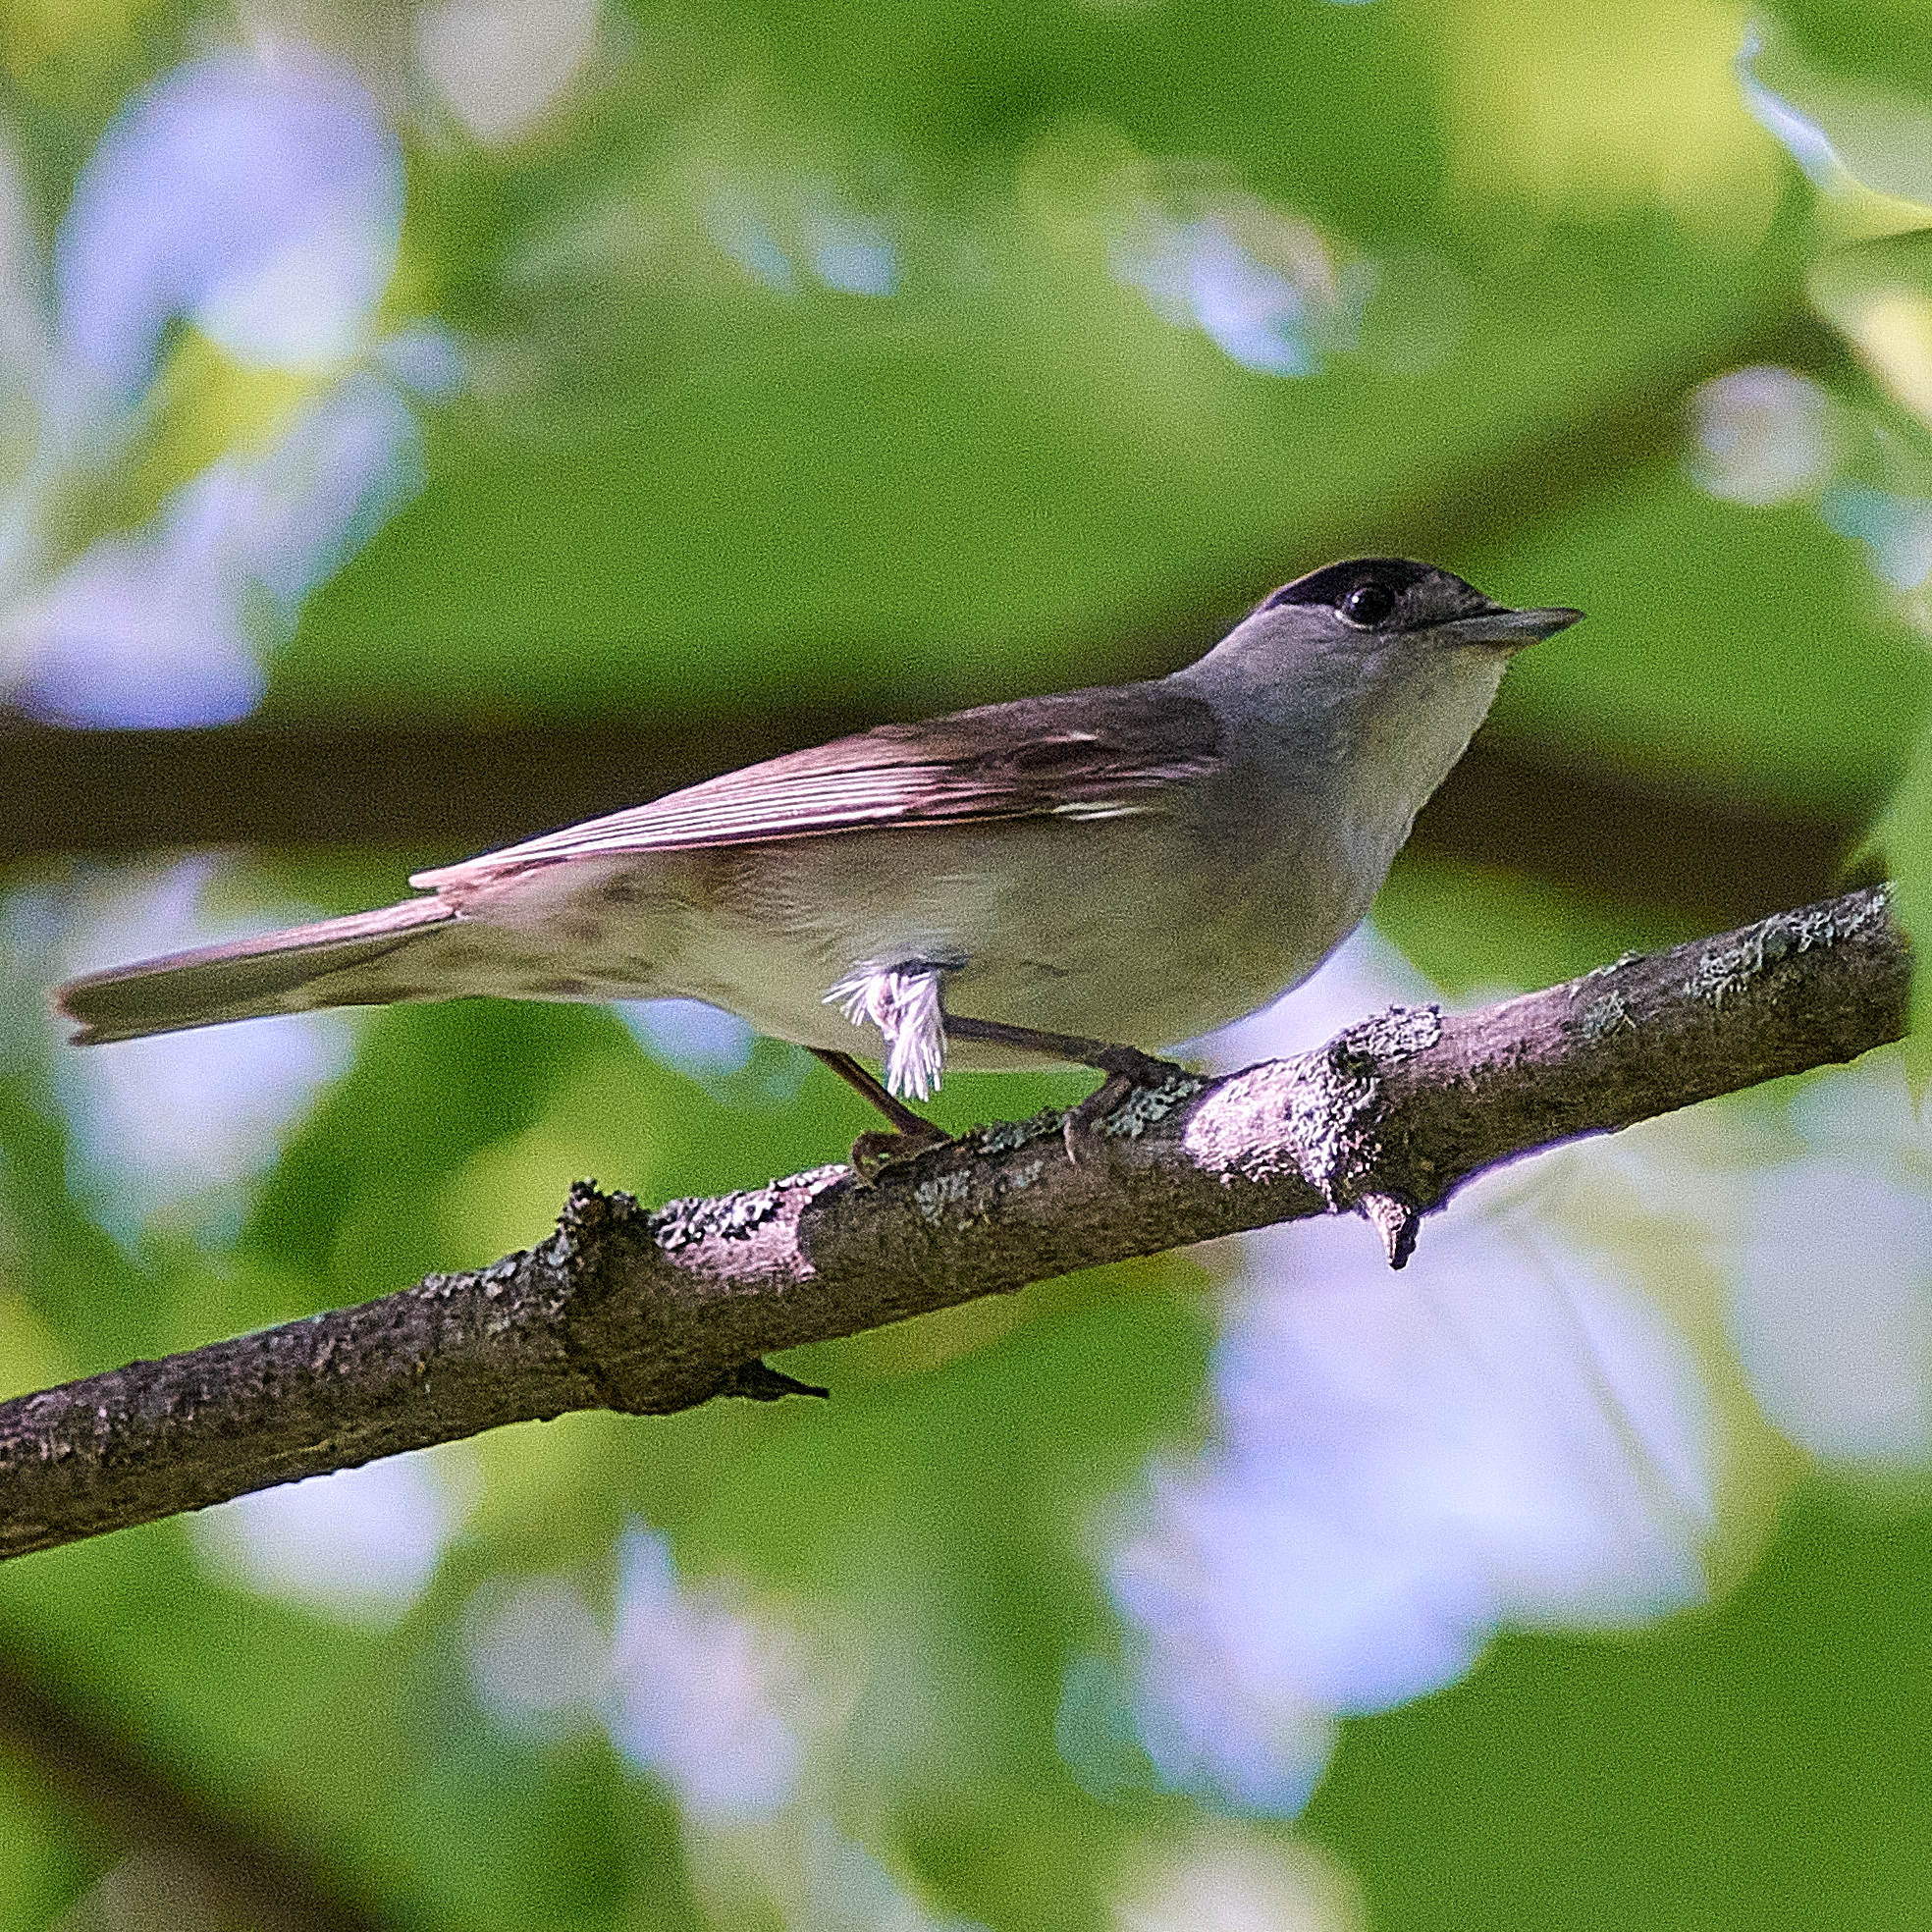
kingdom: Animalia
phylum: Chordata
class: Aves
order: Passeriformes
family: Sylviidae
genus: Sylvia
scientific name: Sylvia atricapilla
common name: Eurasian blackcap
